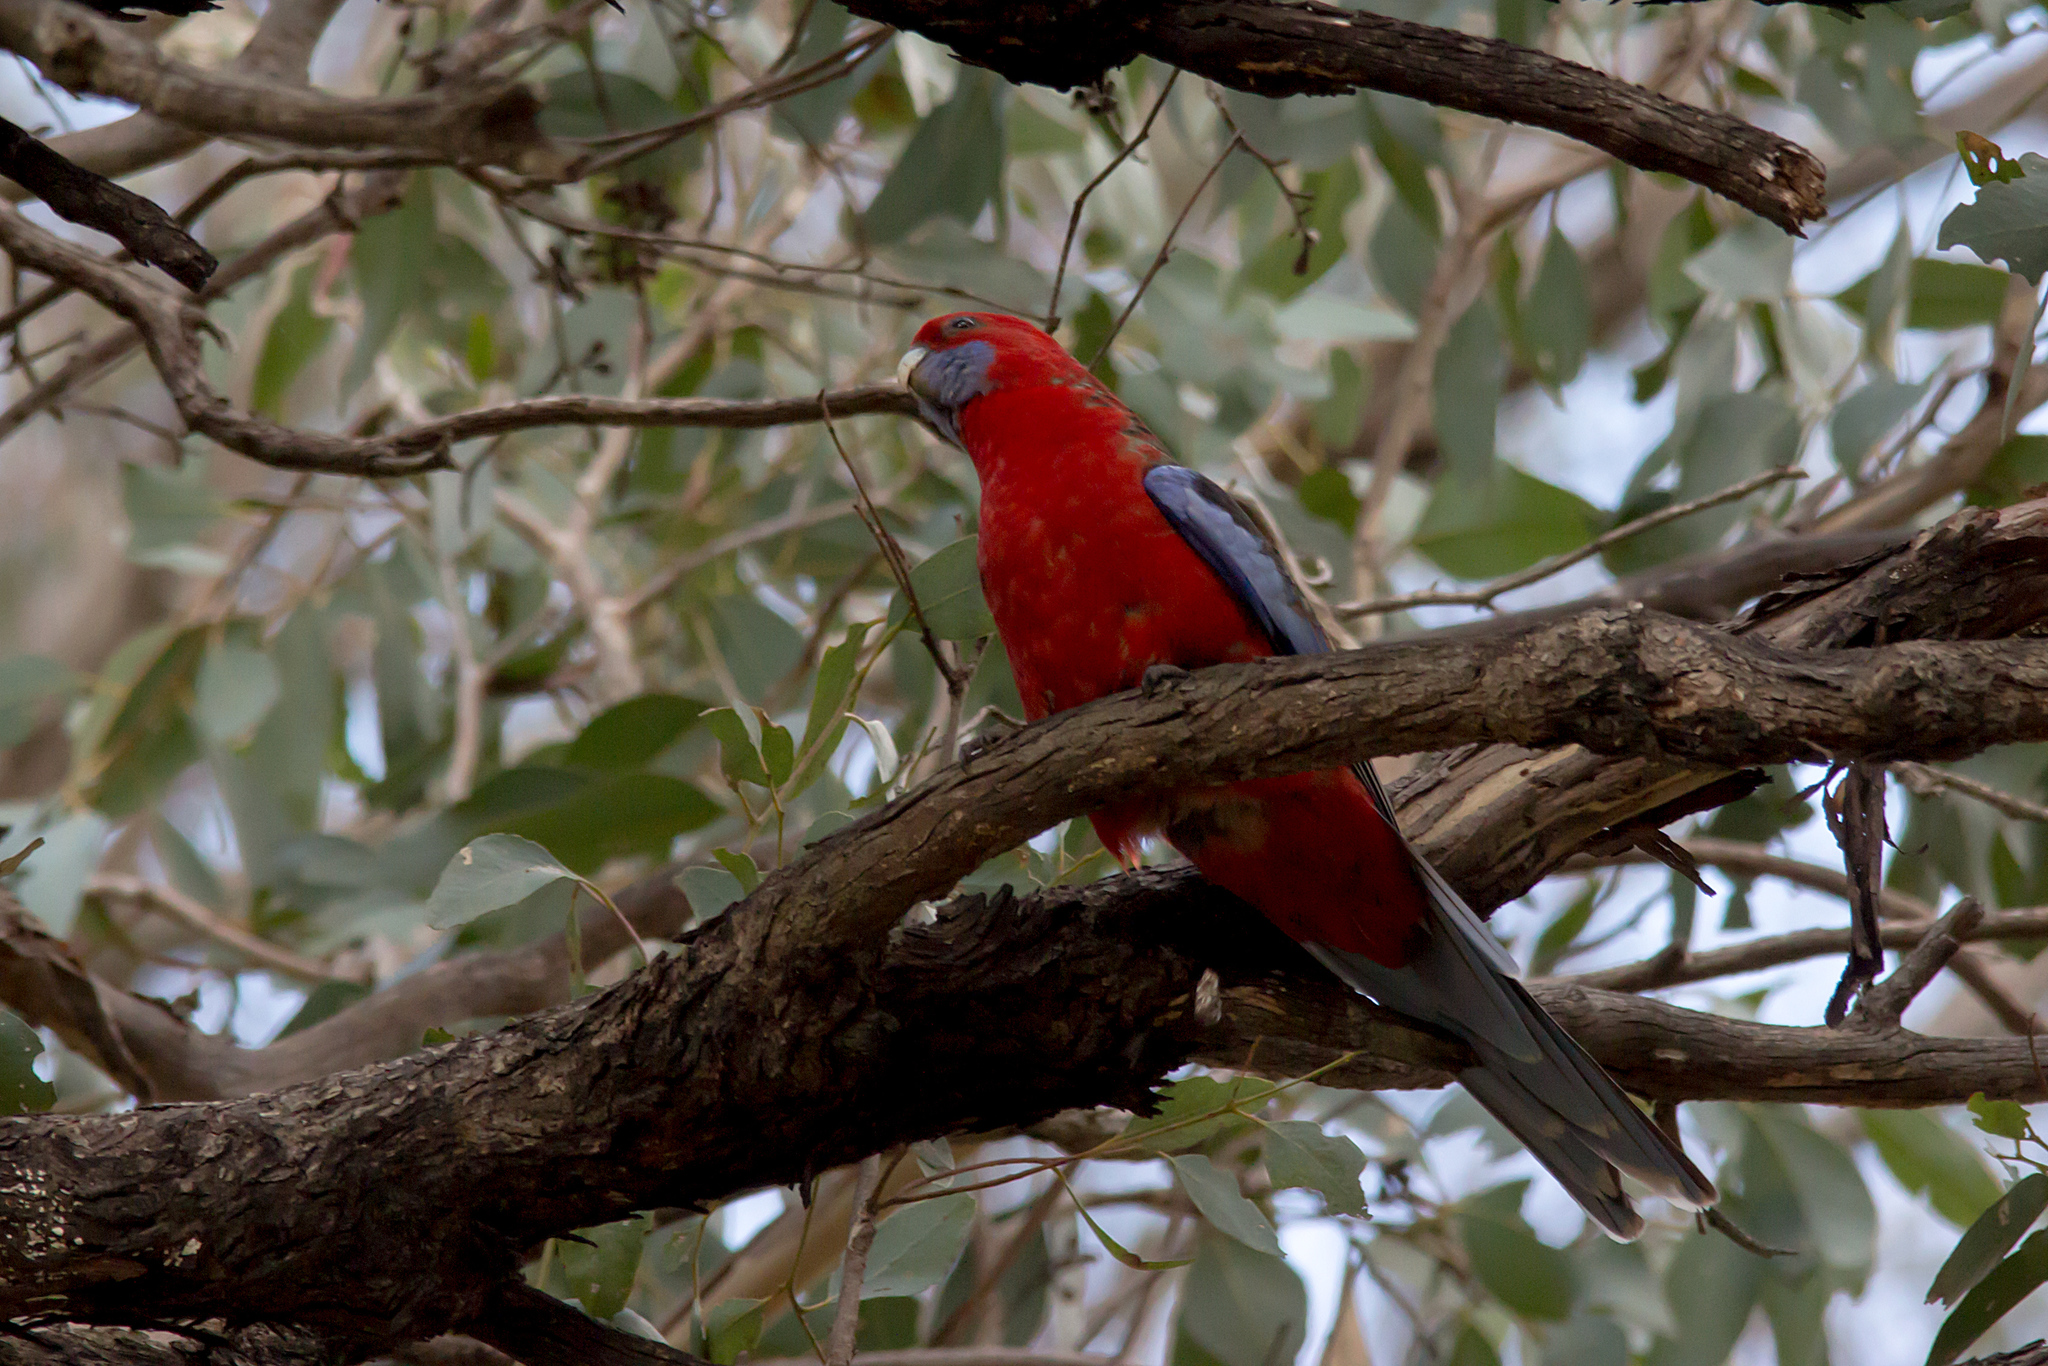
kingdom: Animalia
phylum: Chordata
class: Aves
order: Psittaciformes
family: Psittacidae
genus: Platycercus
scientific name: Platycercus elegans
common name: Crimson rosella
